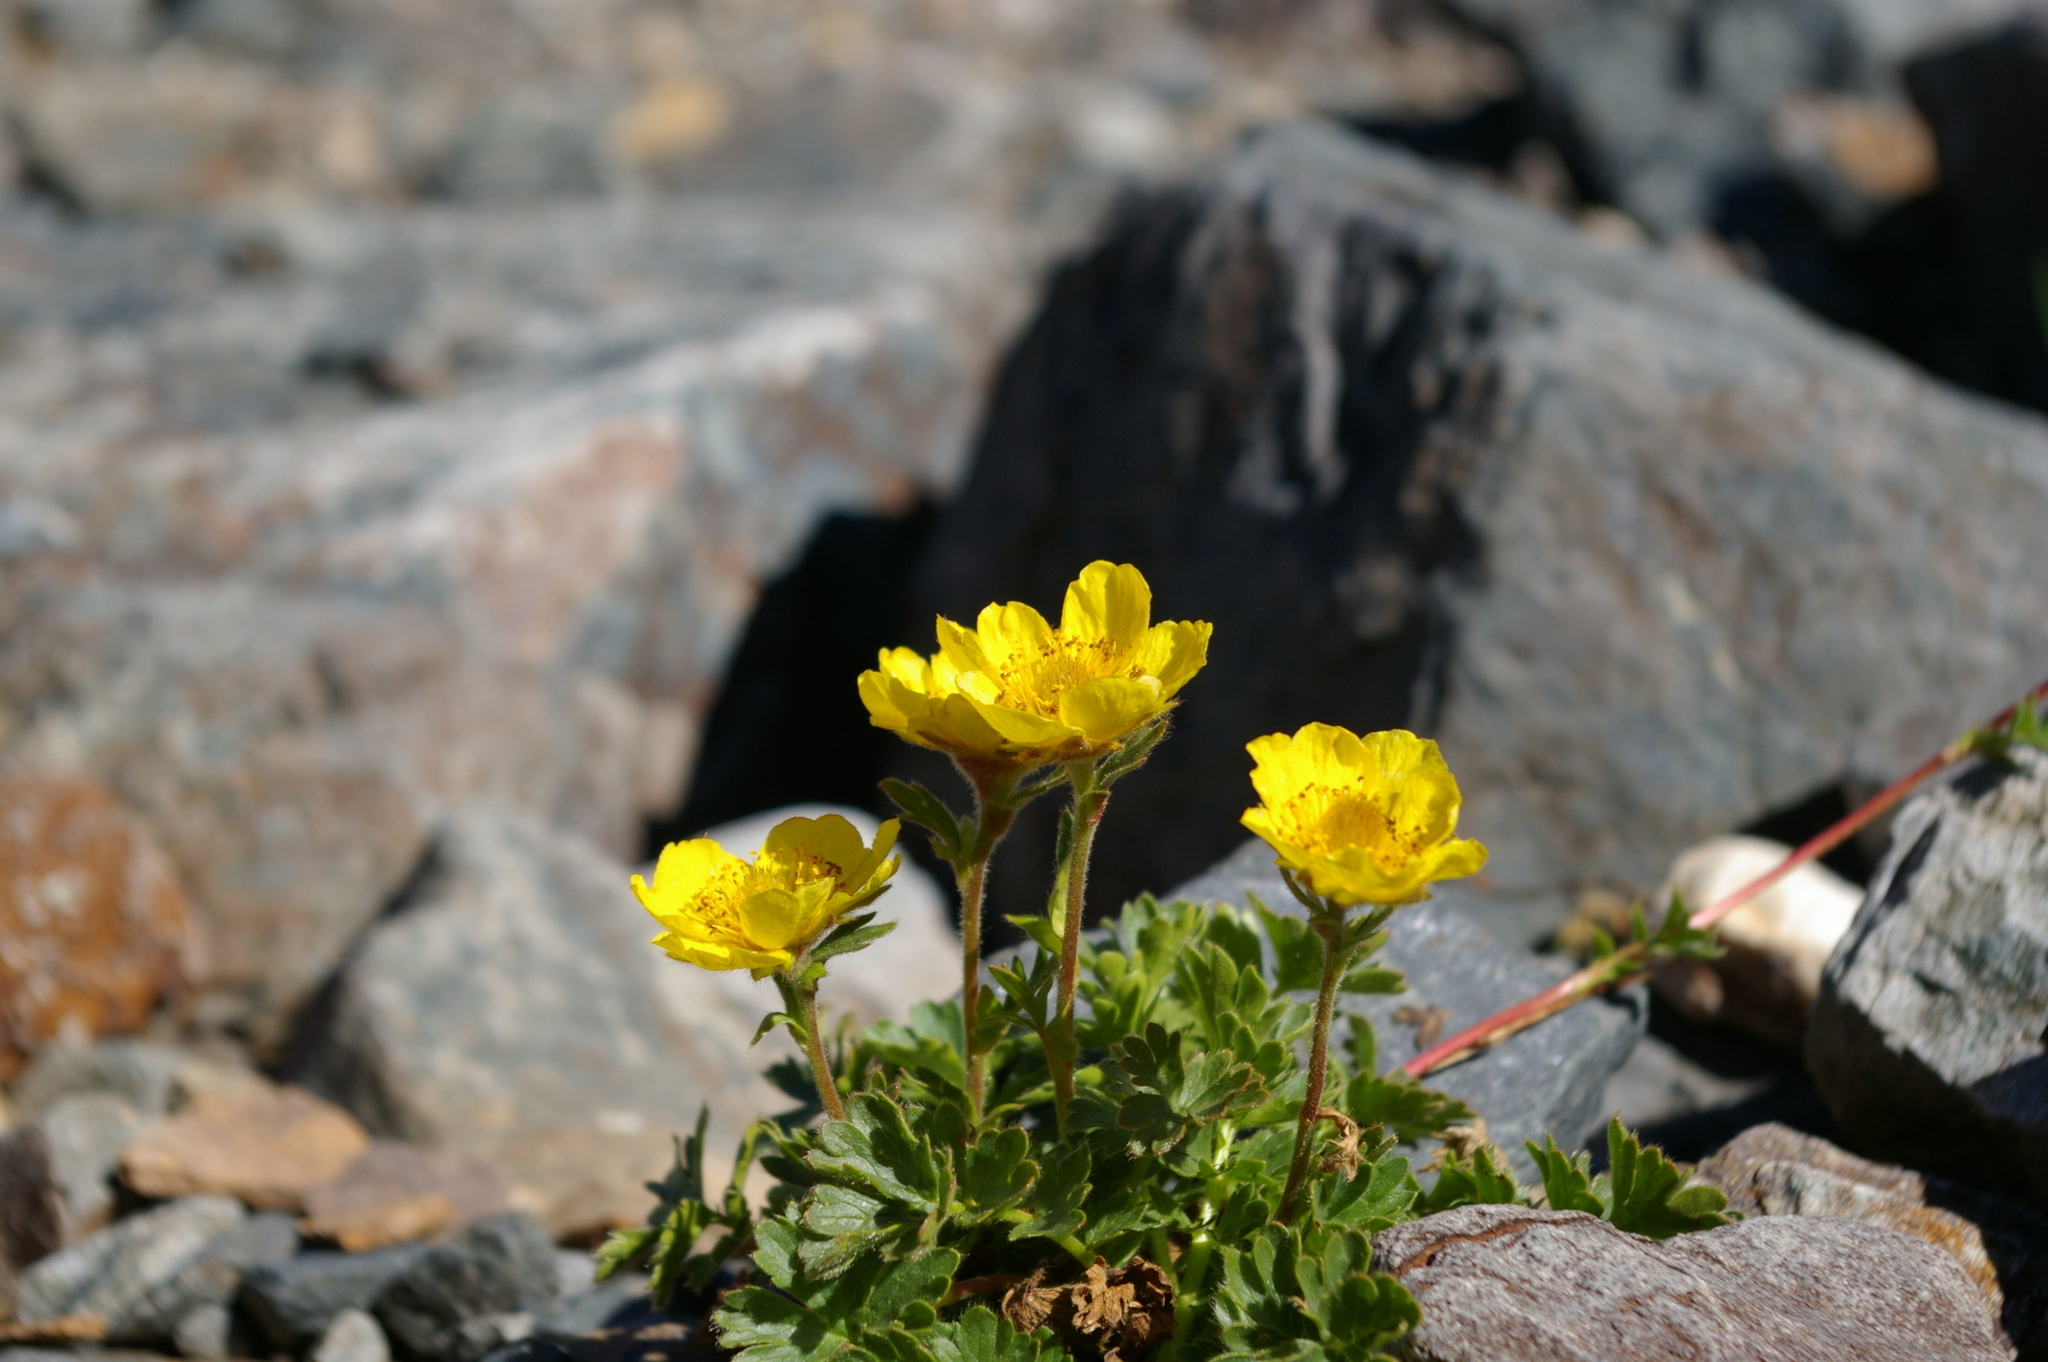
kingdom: Plantae
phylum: Tracheophyta
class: Magnoliopsida
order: Rosales
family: Rosaceae
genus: Geum
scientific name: Geum reptans
